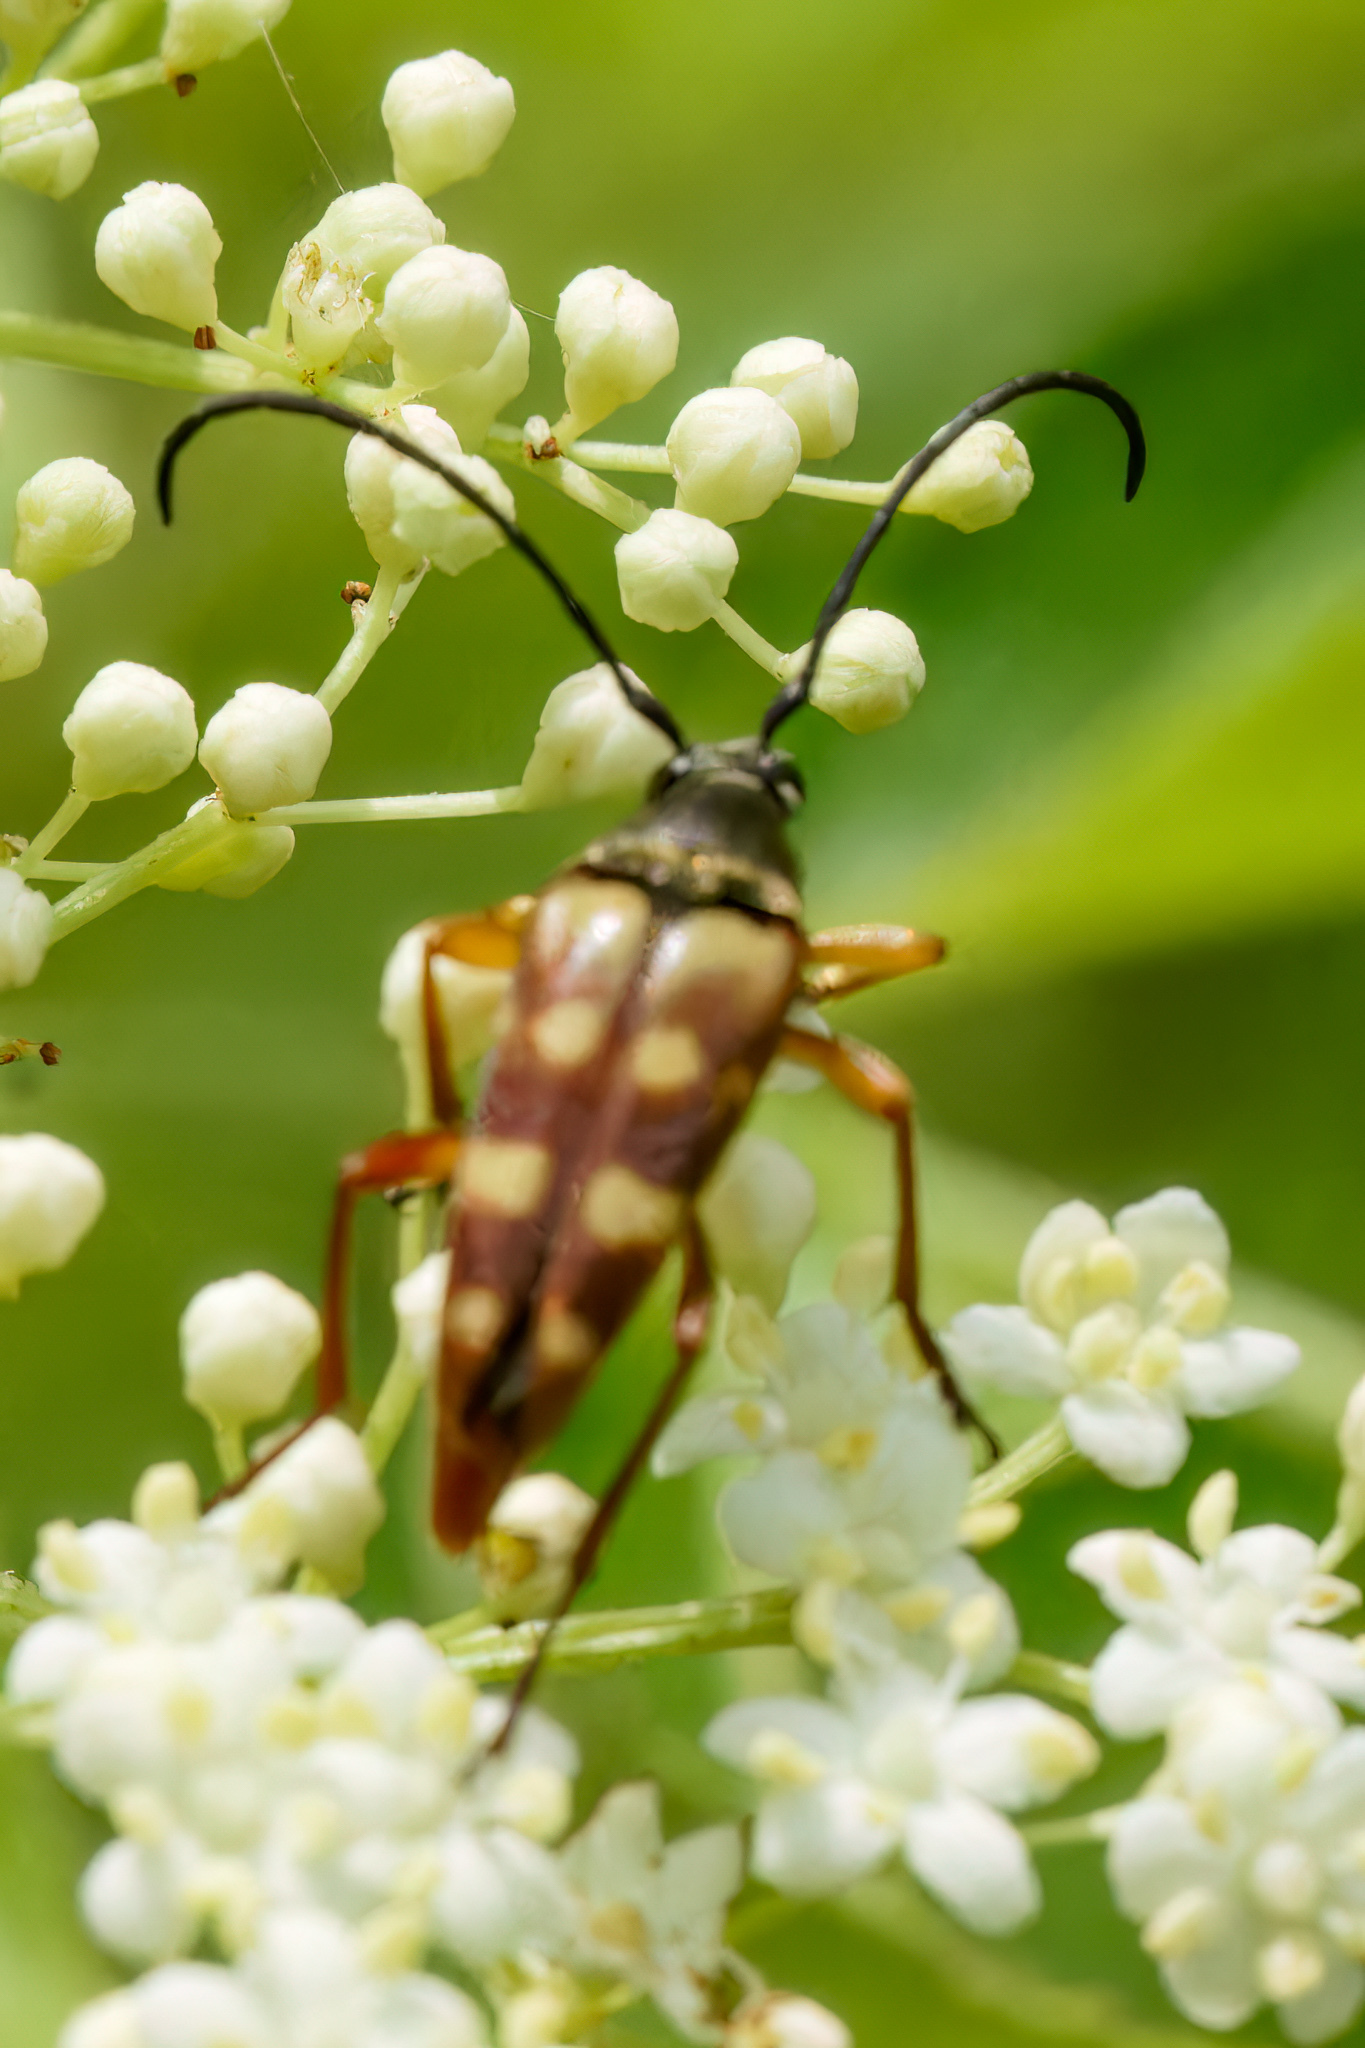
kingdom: Animalia
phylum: Arthropoda
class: Insecta
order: Coleoptera
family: Cerambycidae
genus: Typocerus
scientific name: Typocerus velutinus
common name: Banded longhorn beetle
